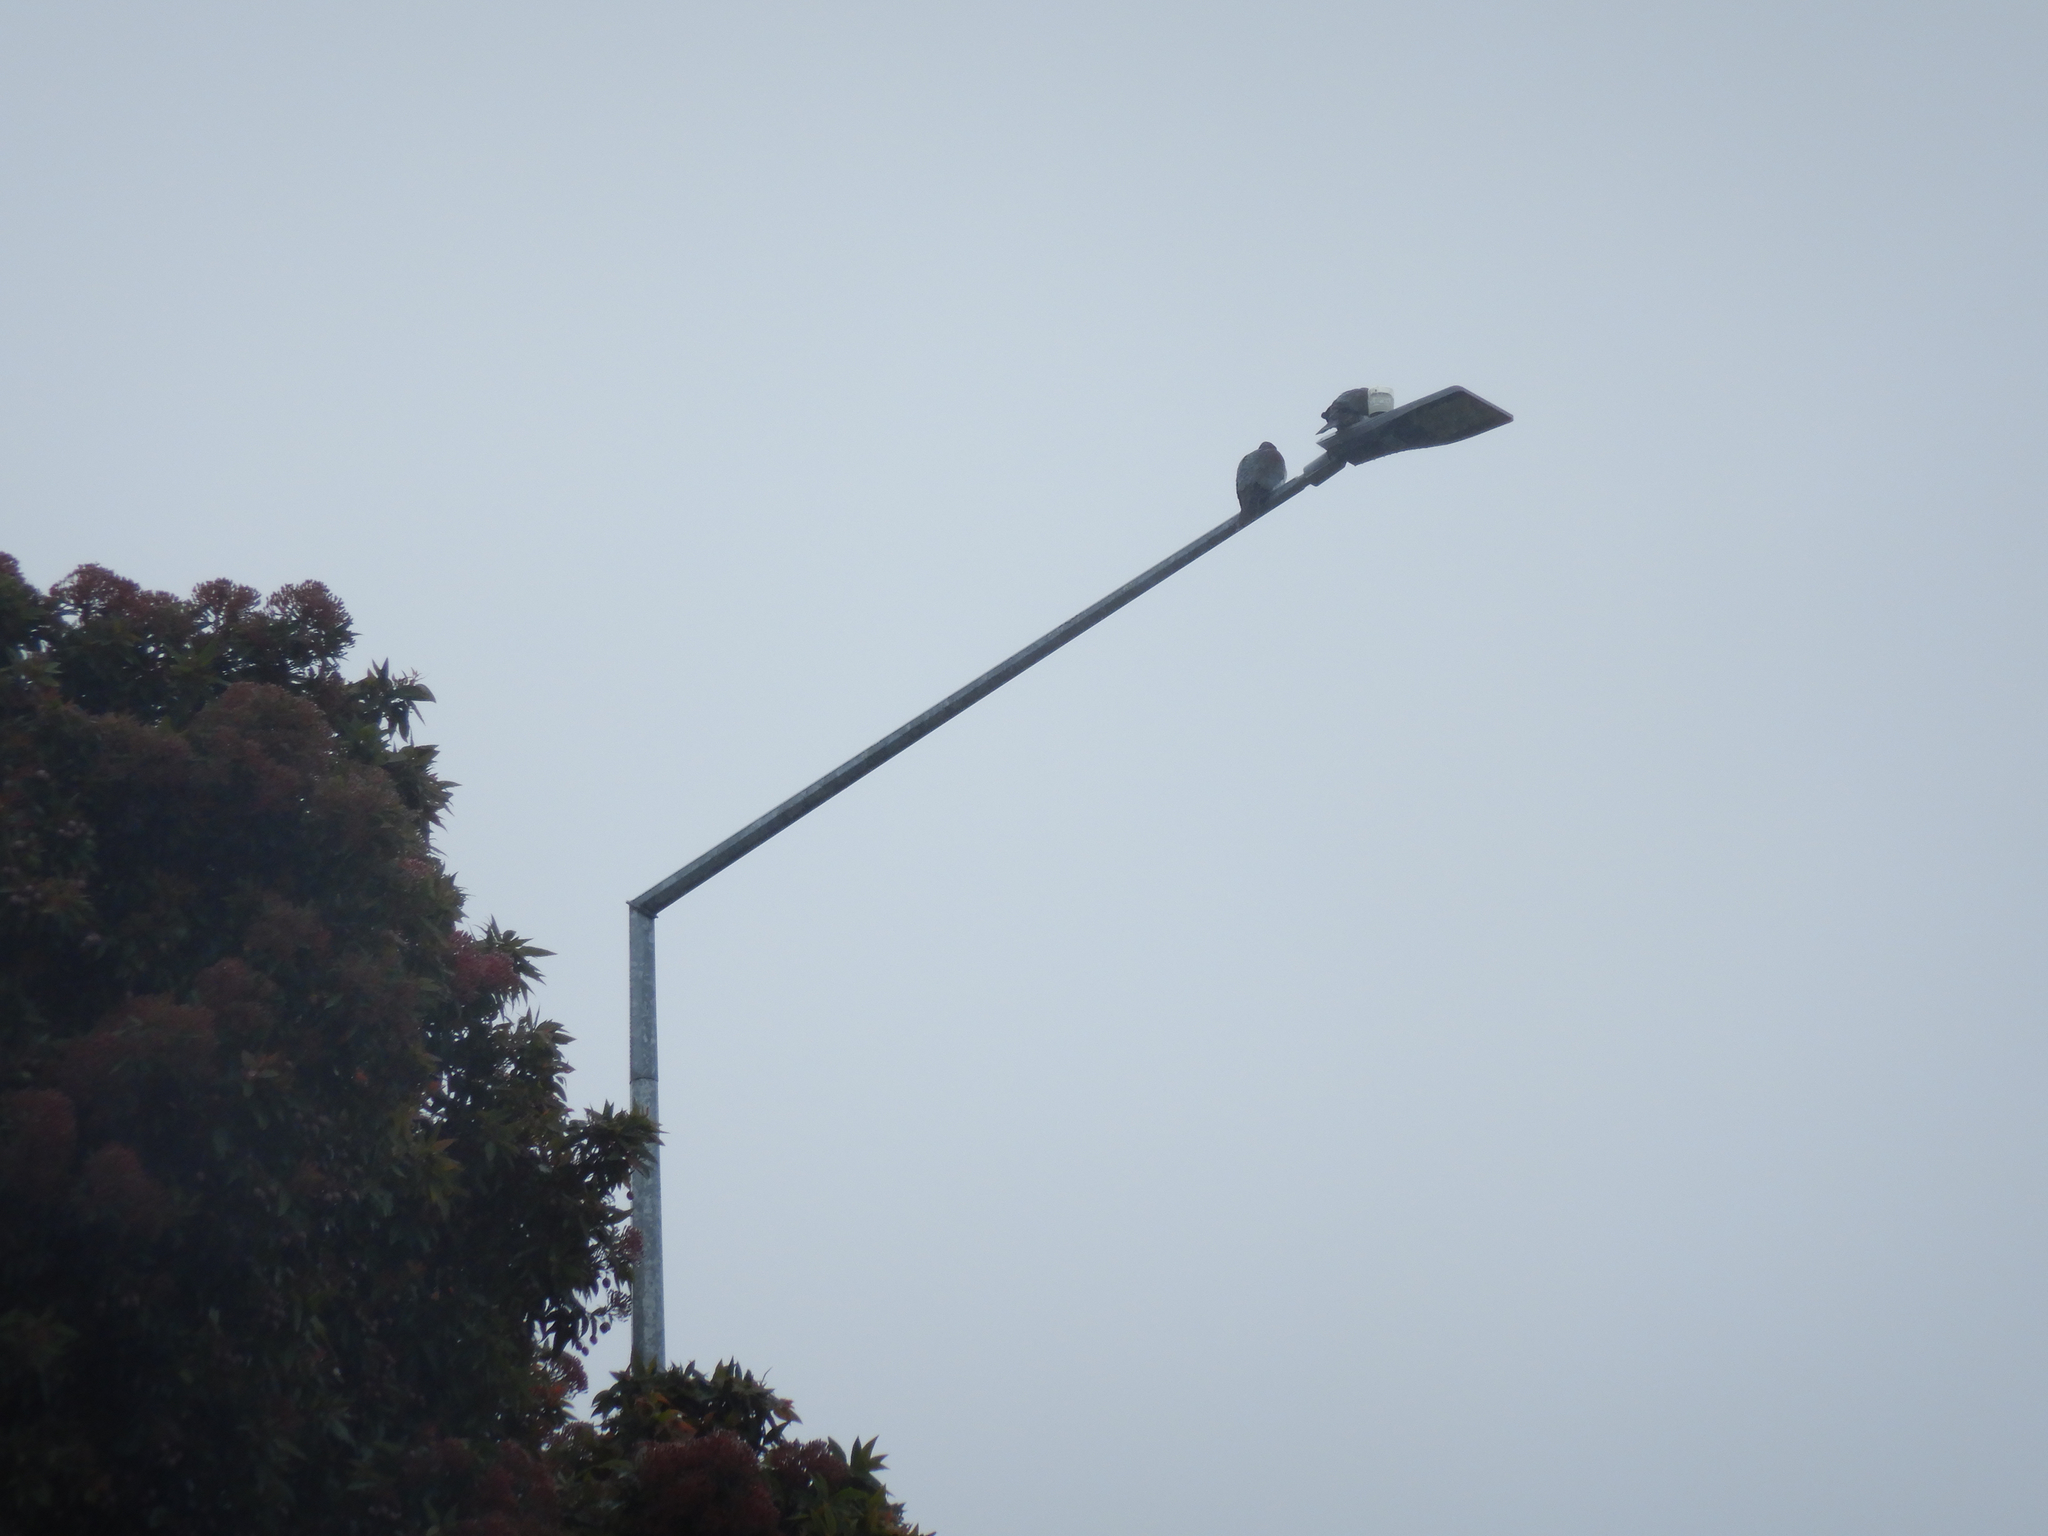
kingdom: Animalia
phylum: Chordata
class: Aves
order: Columbiformes
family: Columbidae
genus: Hemiphaga
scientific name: Hemiphaga novaeseelandiae
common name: New zealand pigeon
